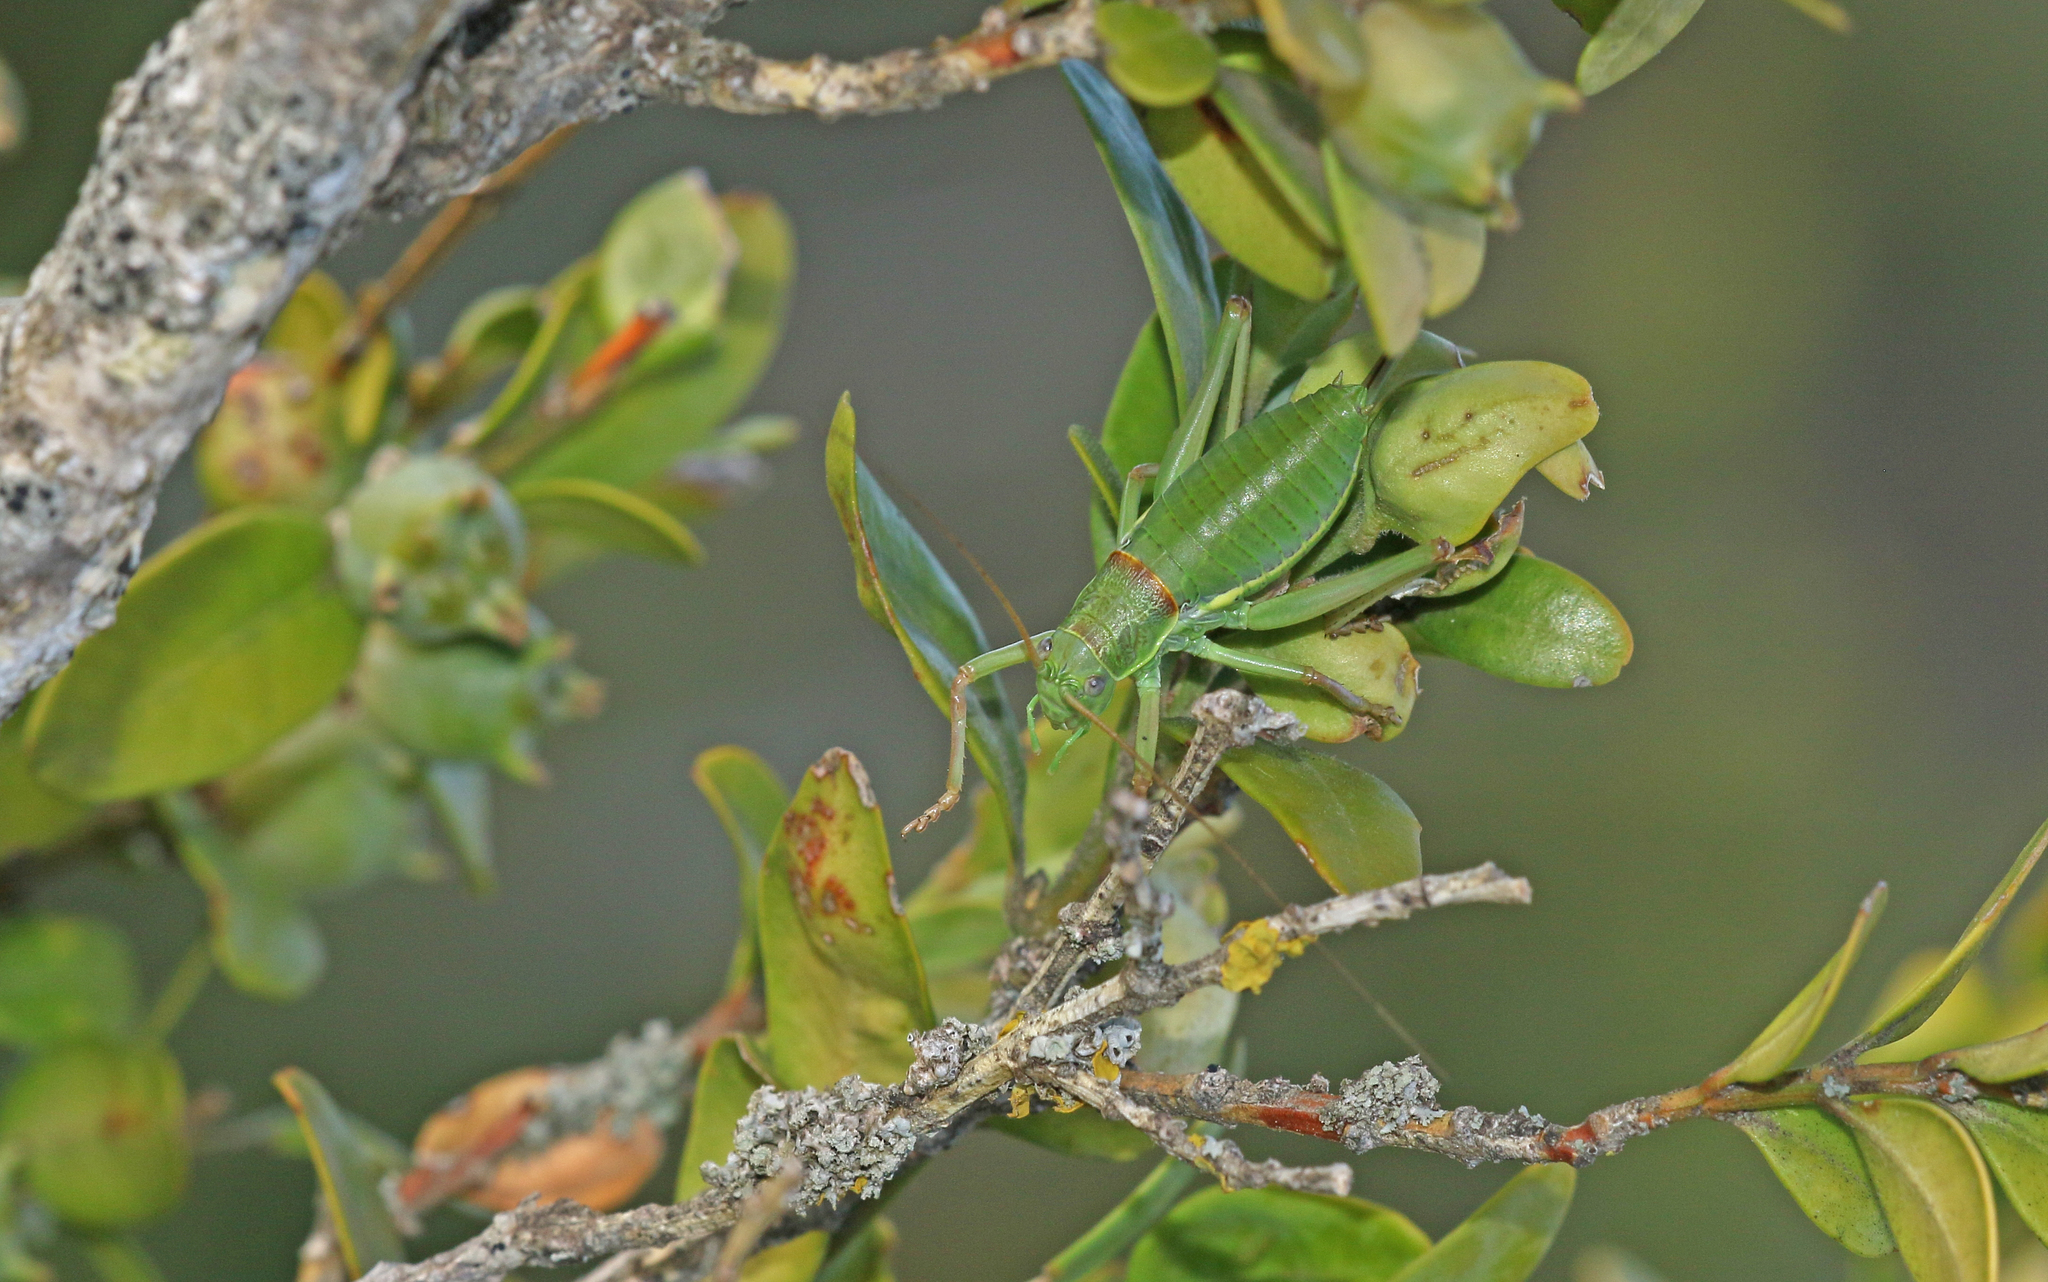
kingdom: Animalia
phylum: Arthropoda
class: Insecta
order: Orthoptera
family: Tettigoniidae
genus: Ephippiger
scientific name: Ephippiger diurnus
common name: Western saddle bush-cricket
